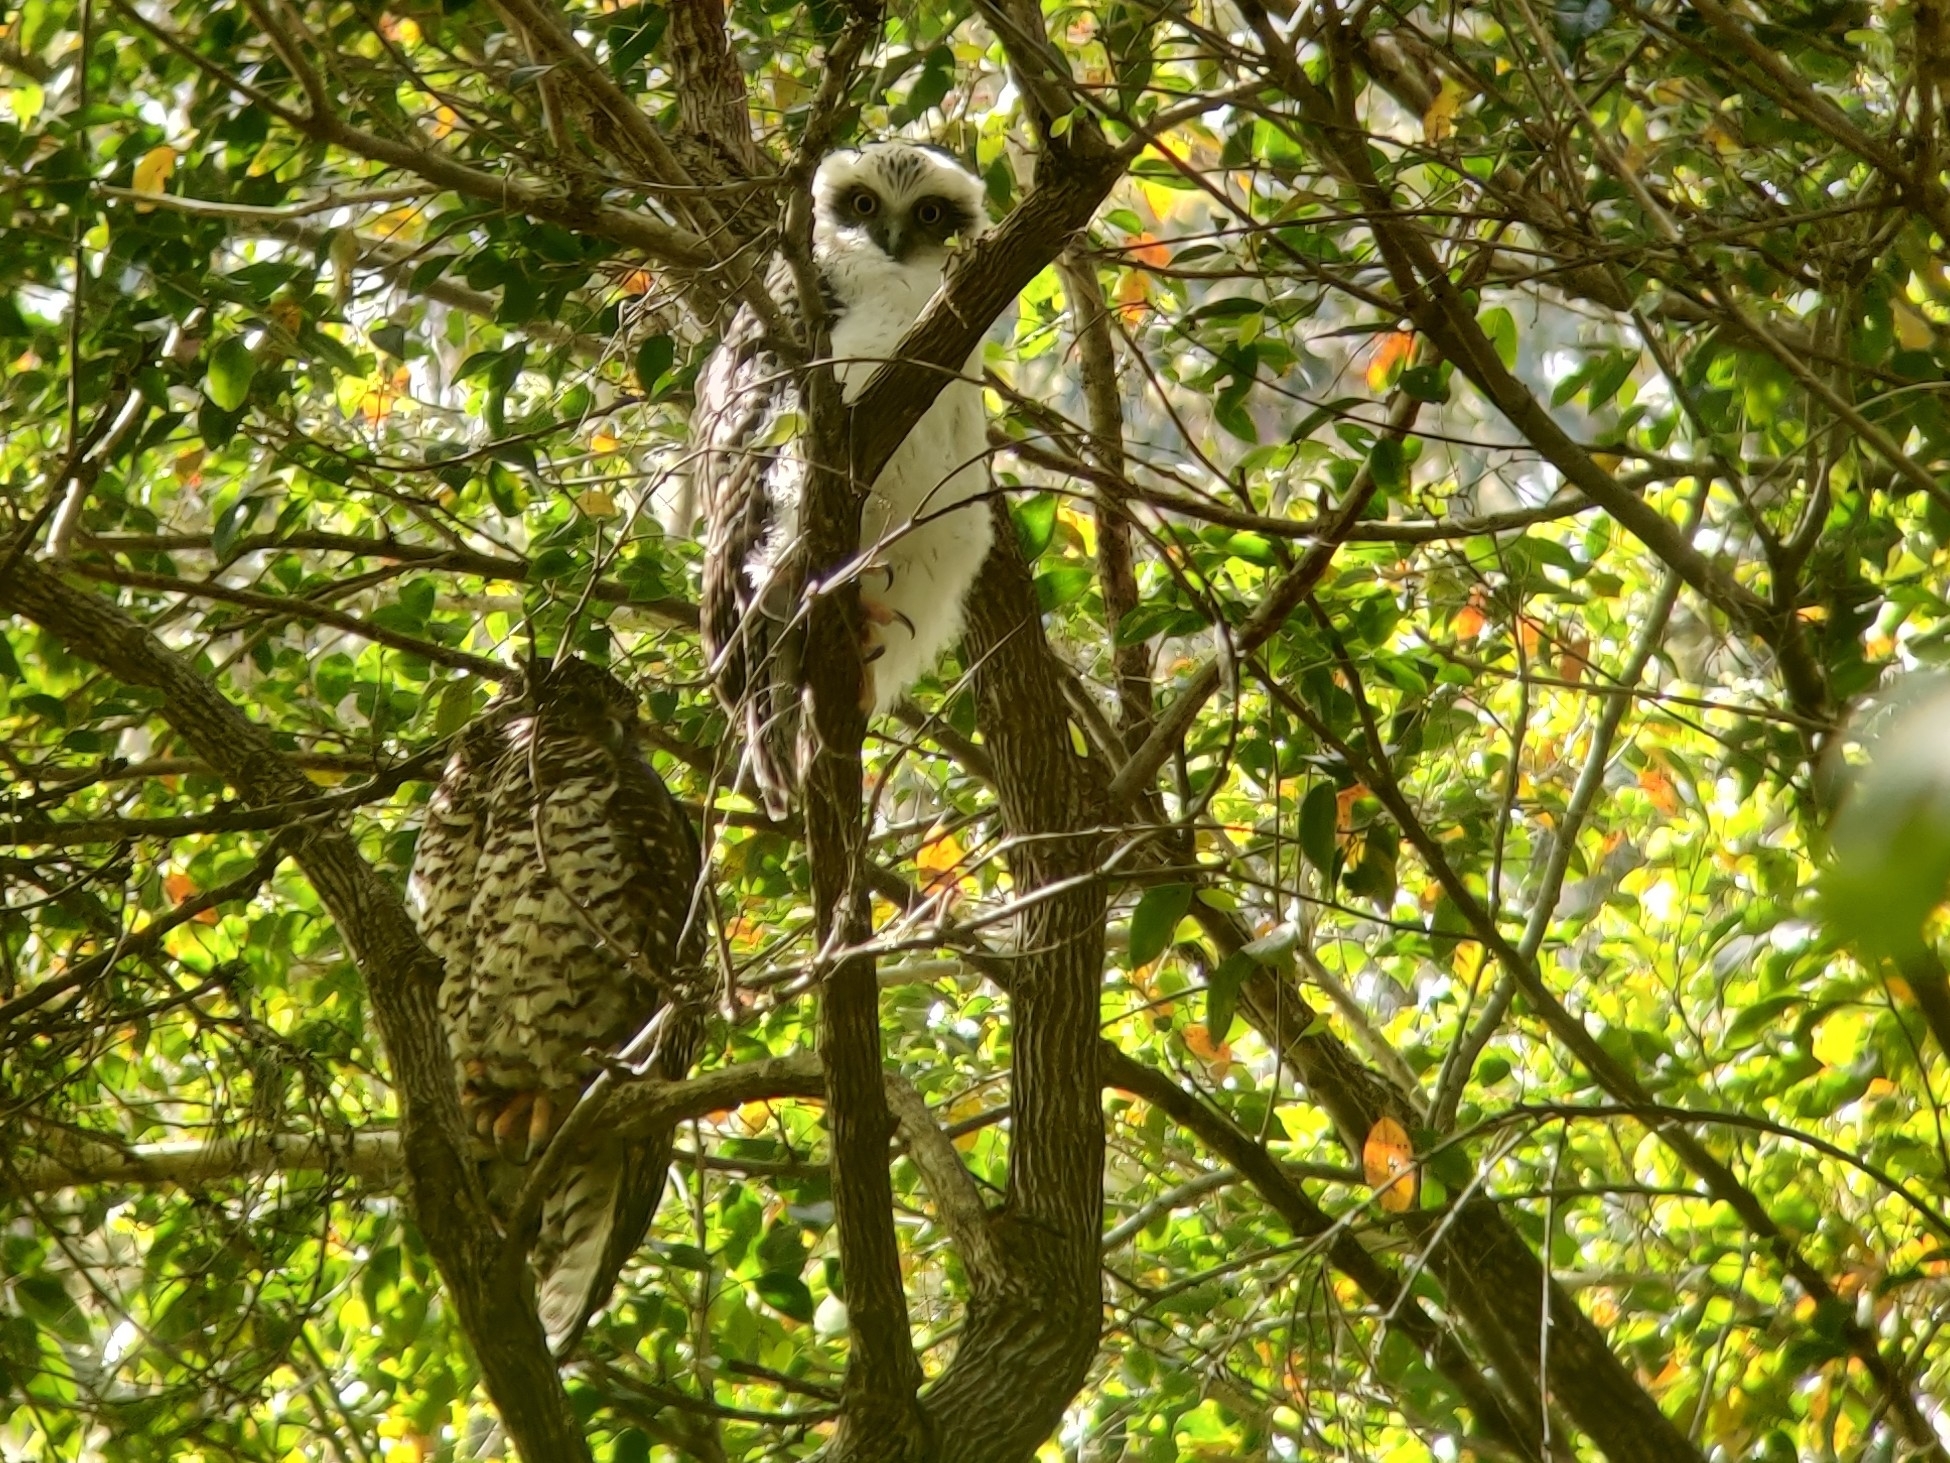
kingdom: Animalia
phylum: Chordata
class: Aves
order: Strigiformes
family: Strigidae
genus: Ninox
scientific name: Ninox strenua
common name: Powerful owl
